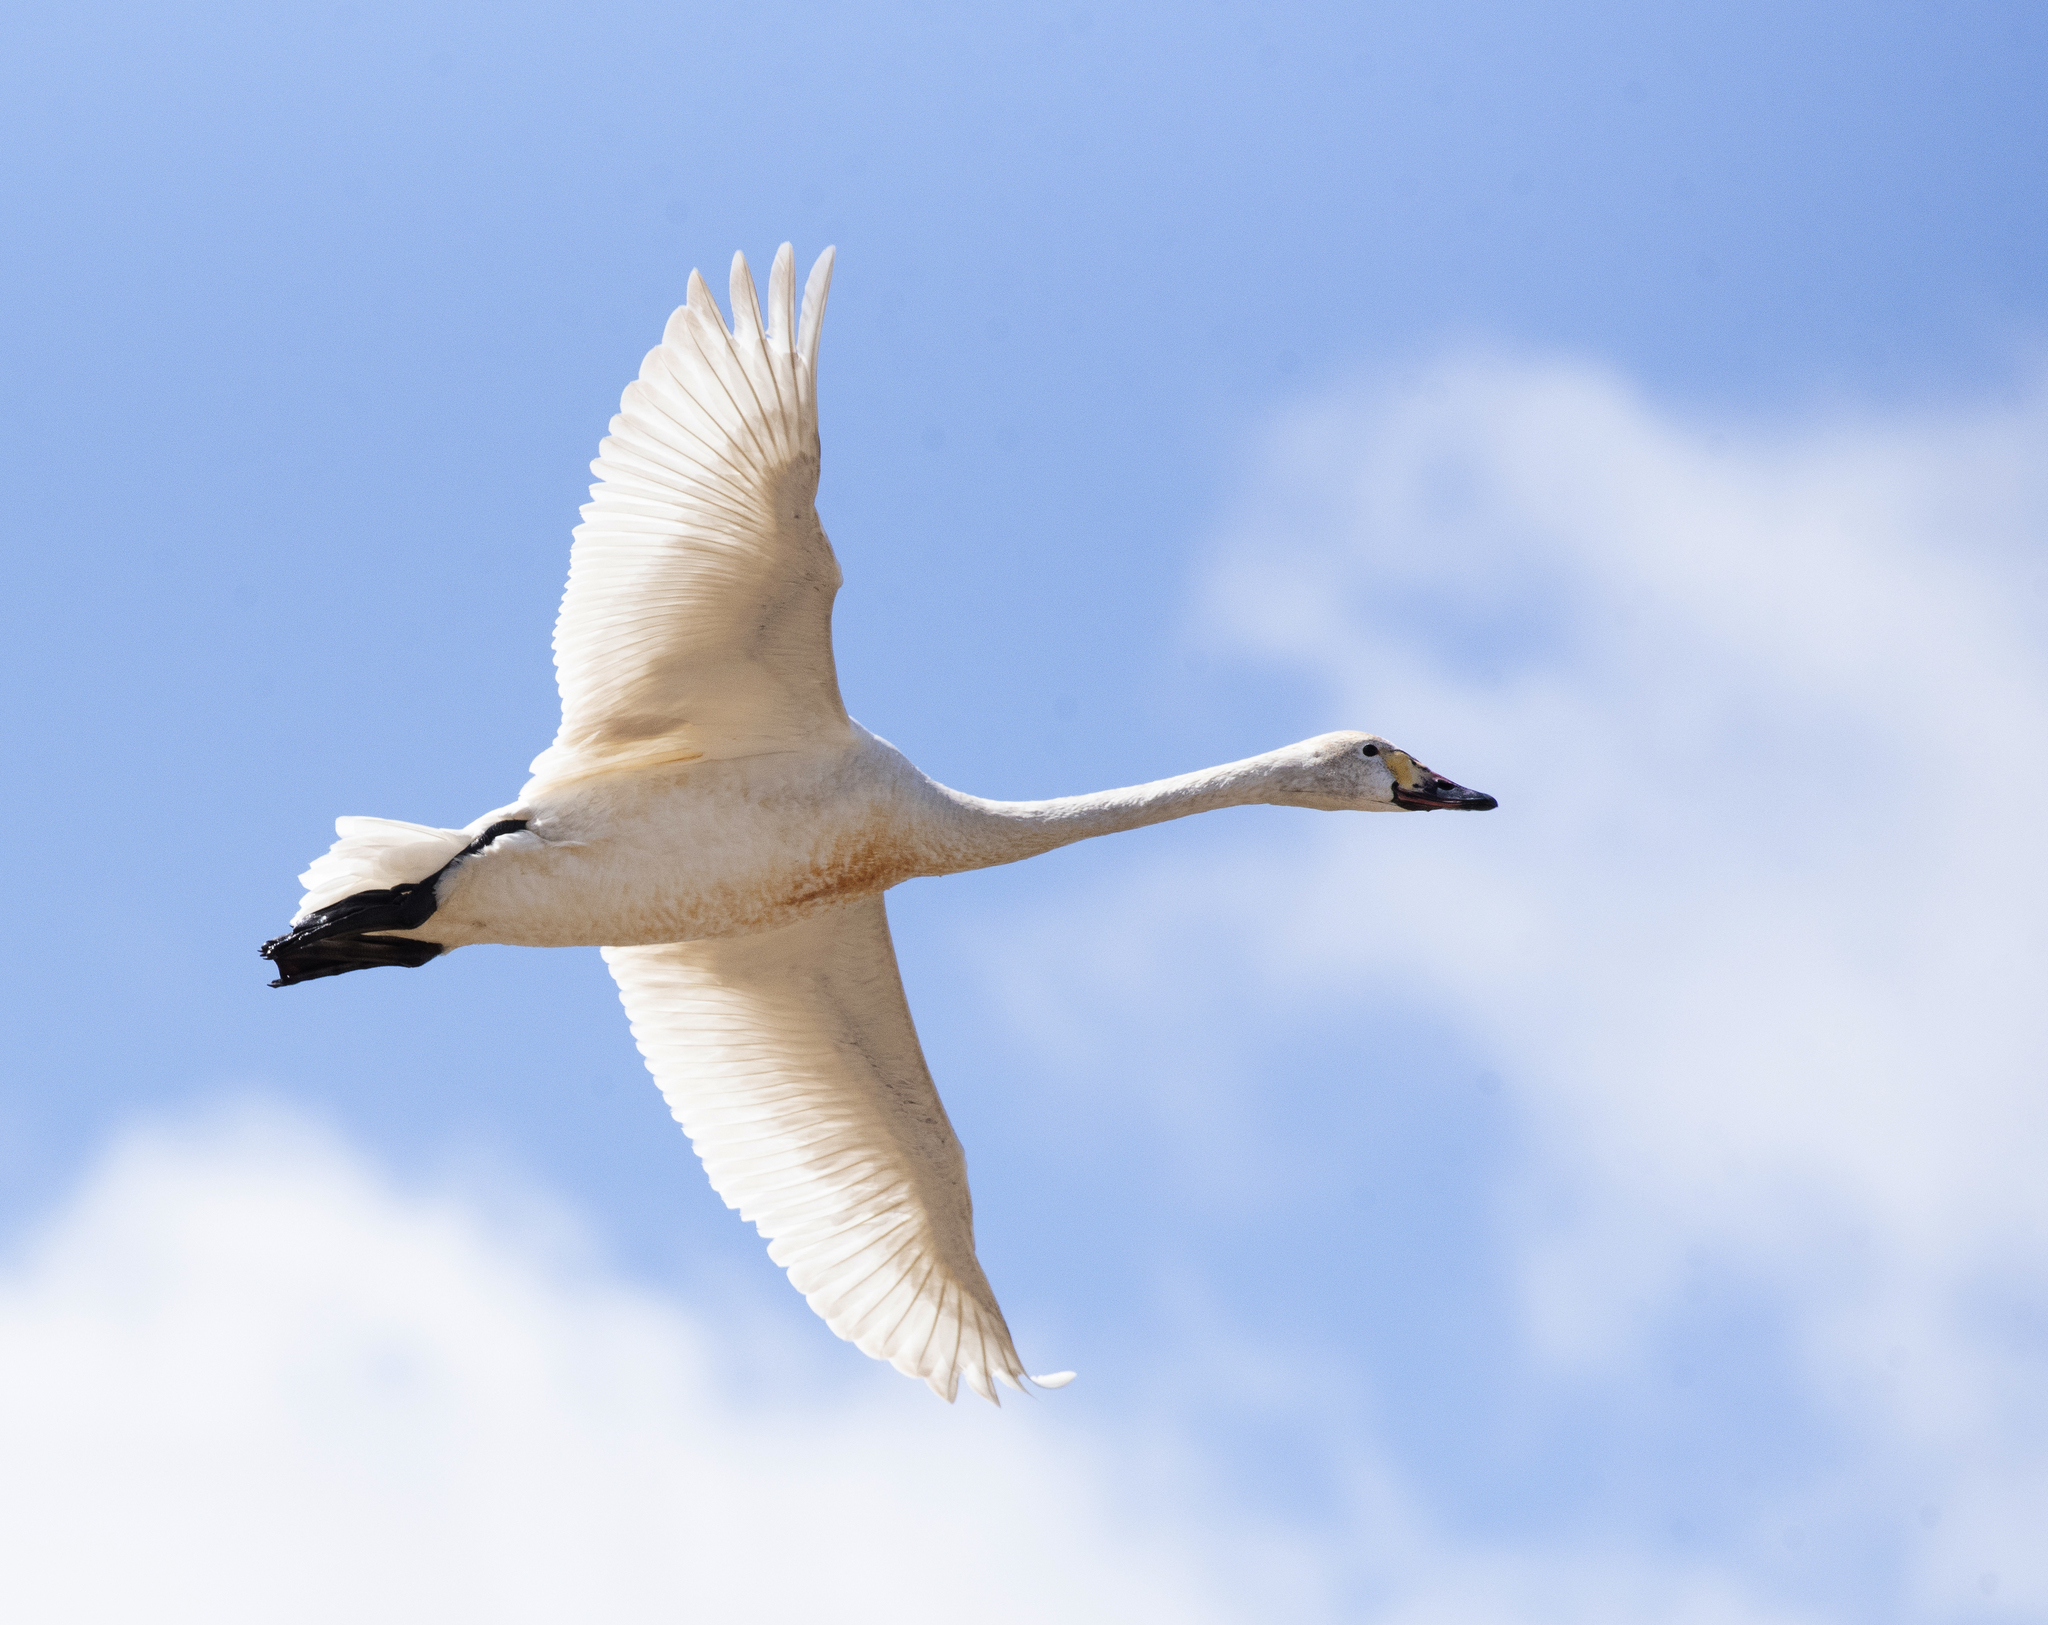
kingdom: Animalia
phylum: Chordata
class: Aves
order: Anseriformes
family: Anatidae
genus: Cygnus
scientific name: Cygnus columbianus
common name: Tundra swan
